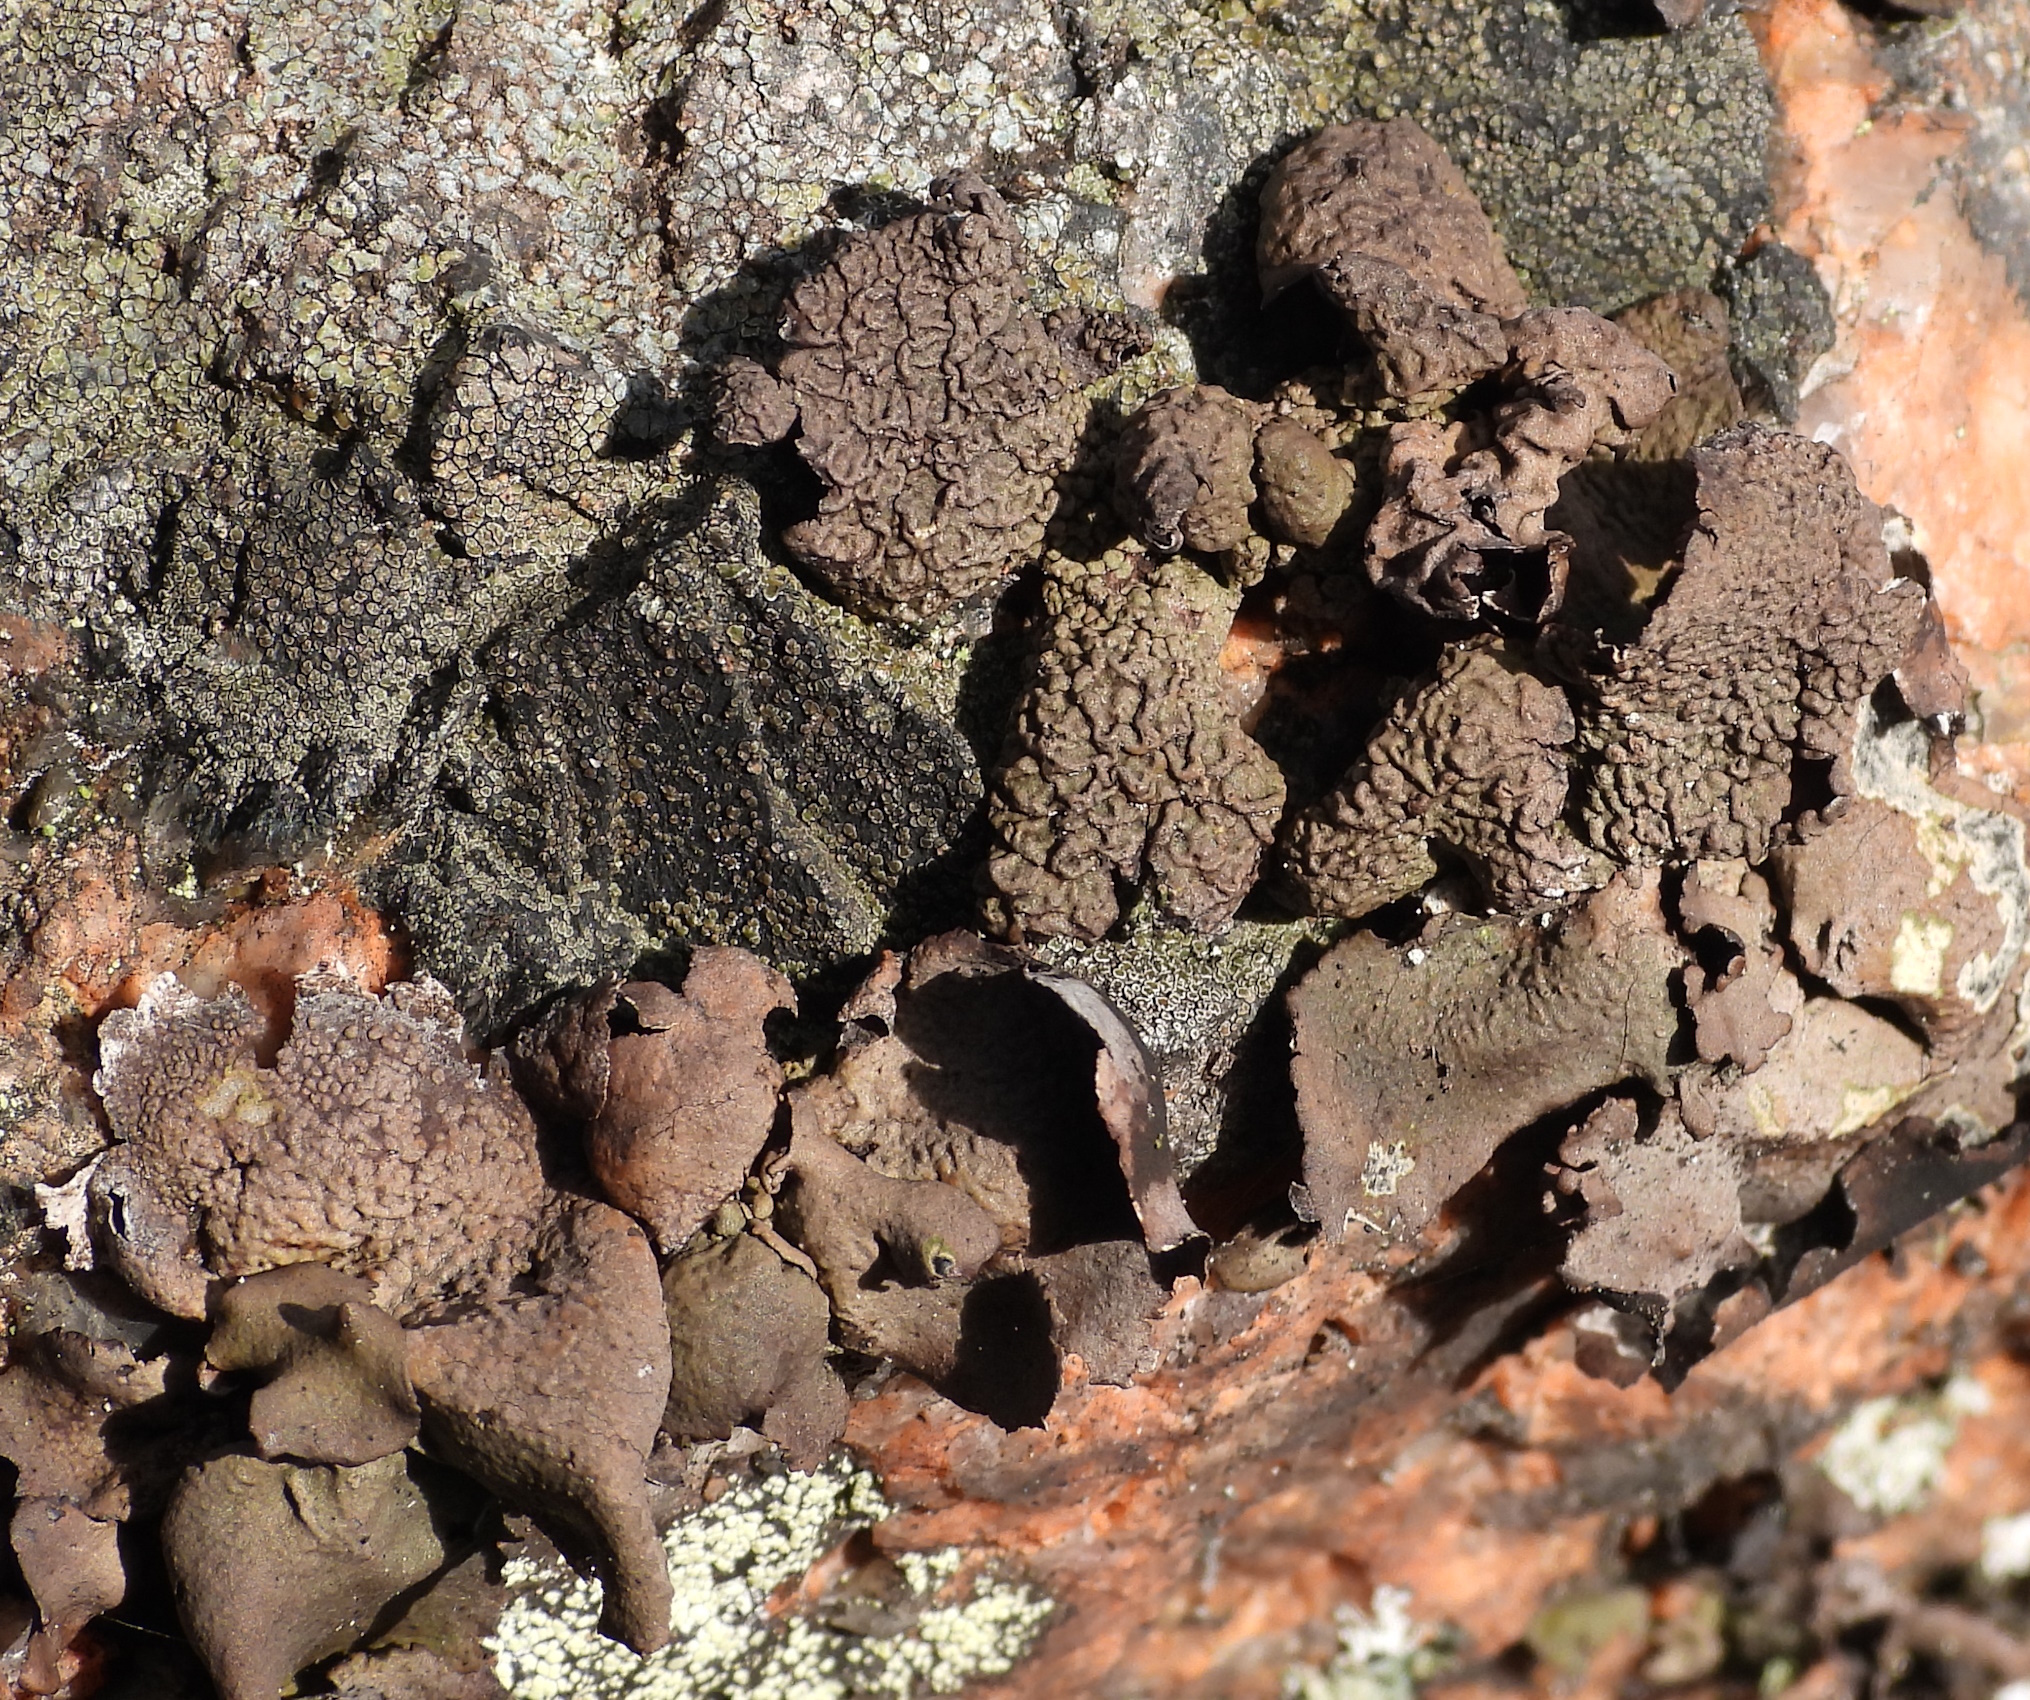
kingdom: Fungi
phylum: Ascomycota
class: Lecanoromycetes
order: Umbilicariales
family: Umbilicariaceae
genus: Umbilicaria
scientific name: Umbilicaria nylanderiana
